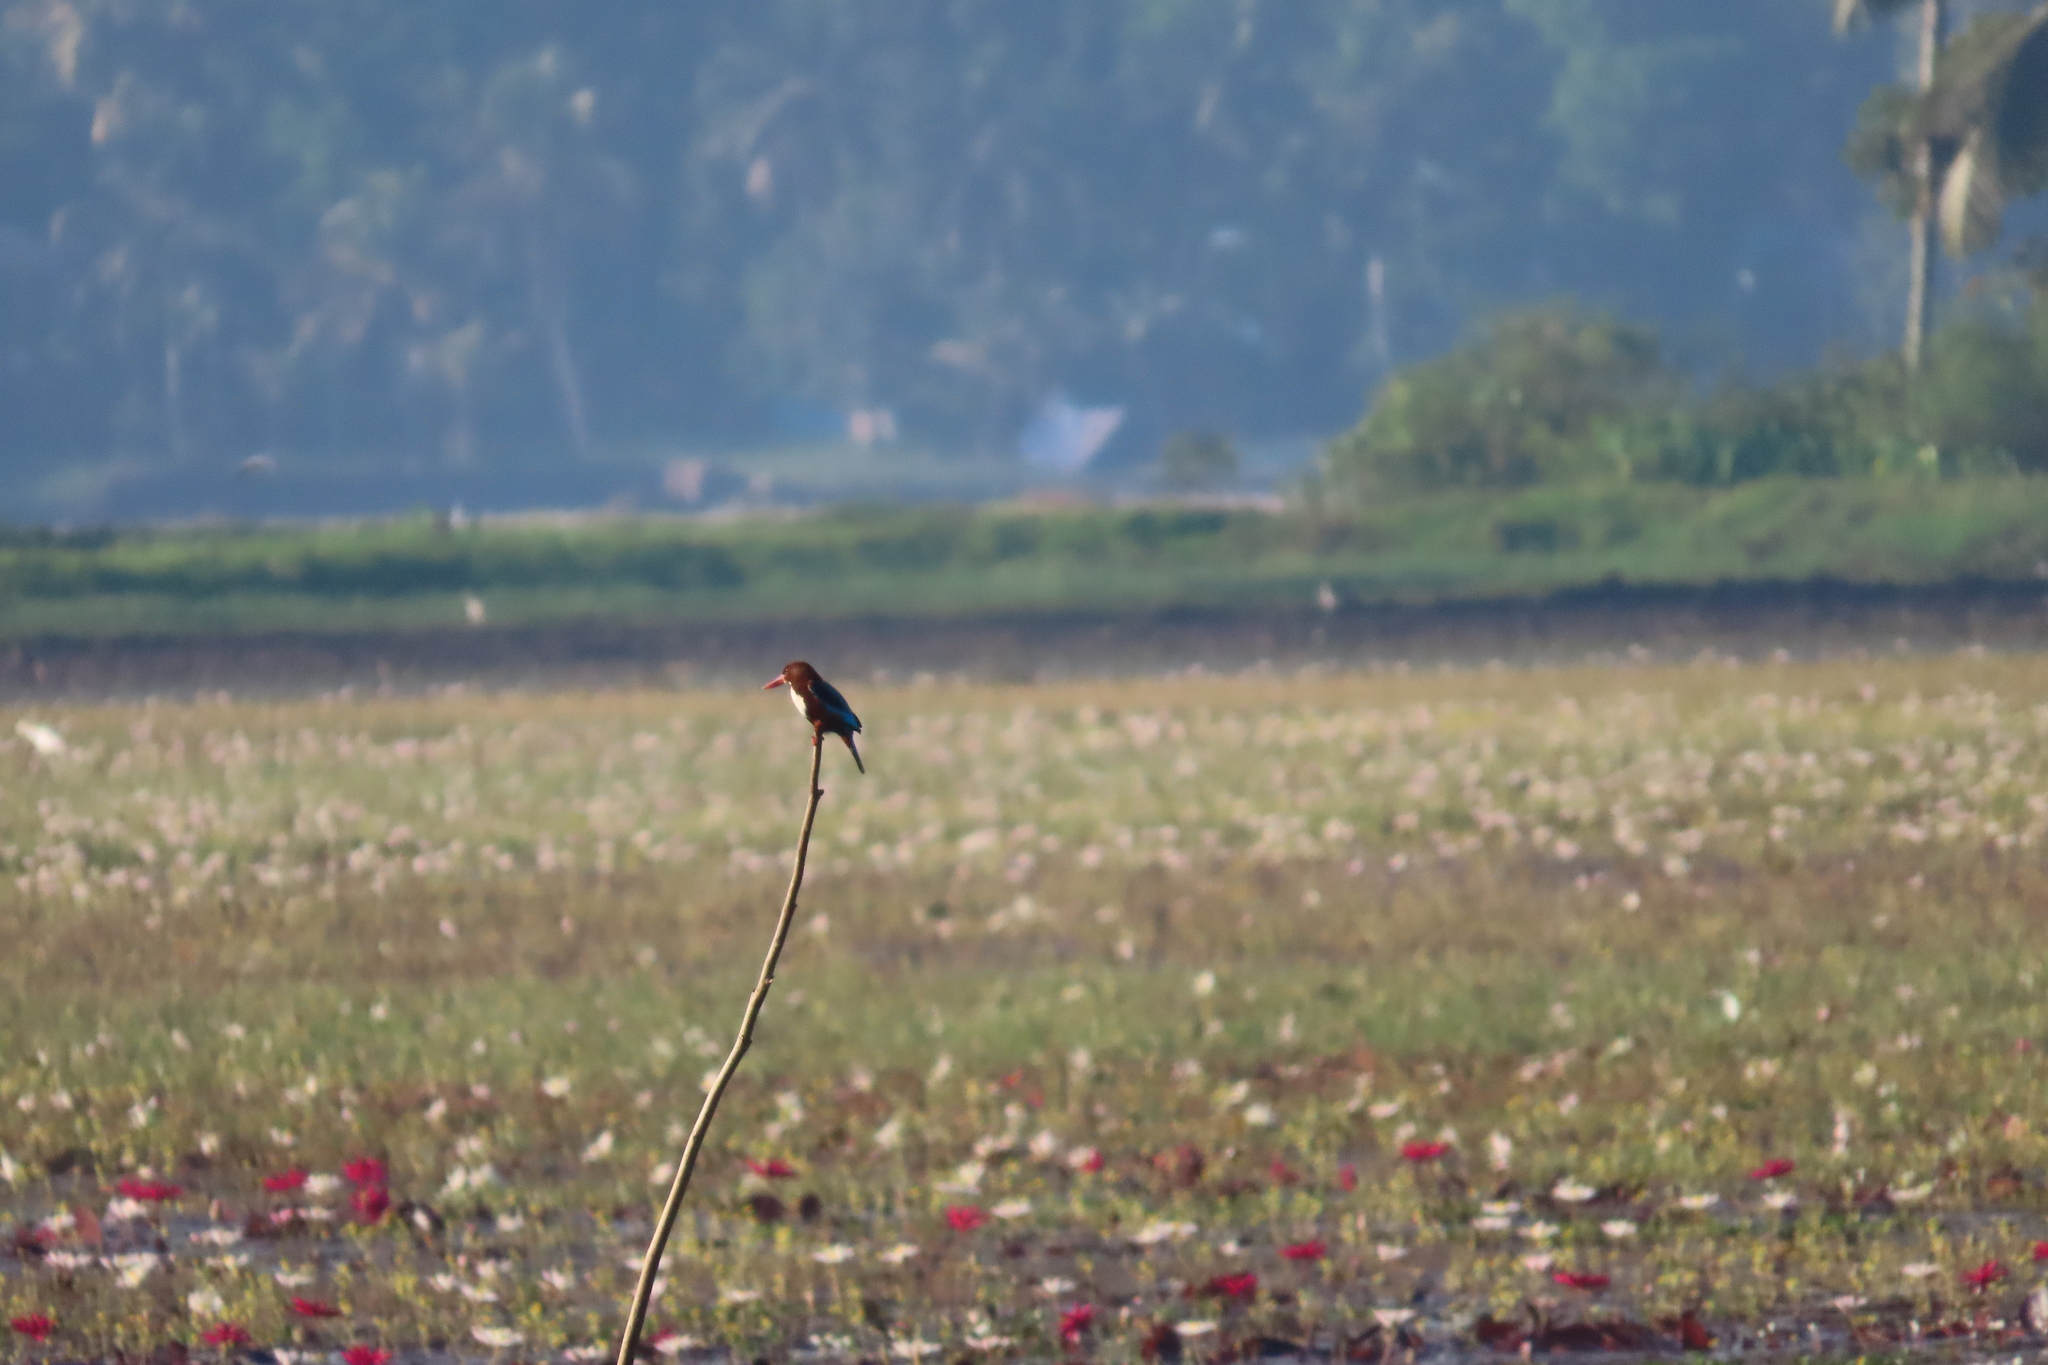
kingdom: Animalia
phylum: Chordata
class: Aves
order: Coraciiformes
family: Alcedinidae
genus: Halcyon
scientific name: Halcyon smyrnensis
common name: White-throated kingfisher
